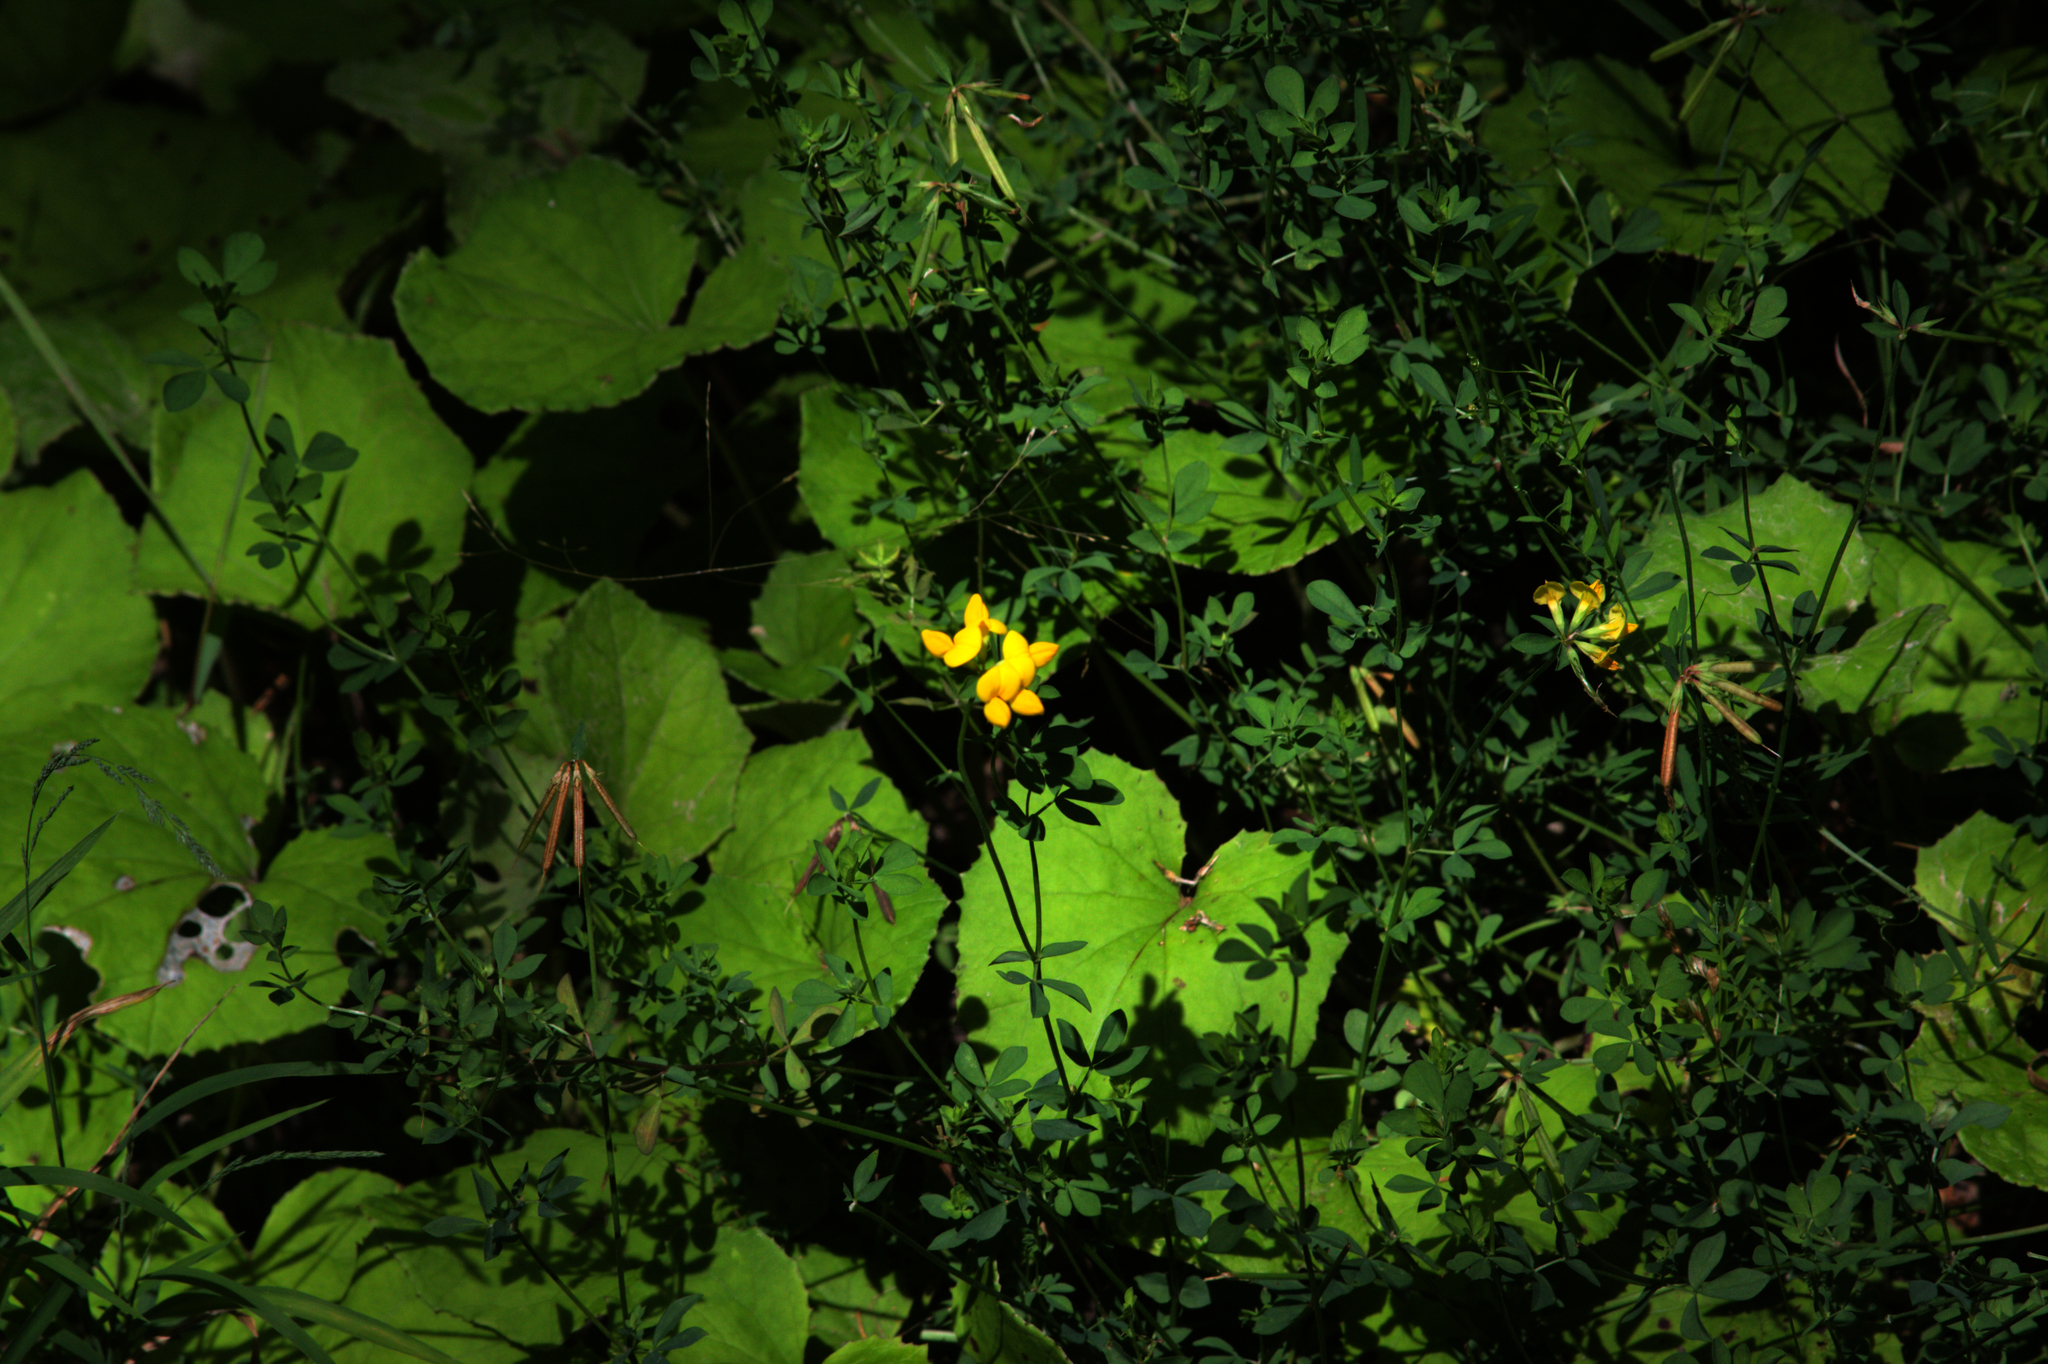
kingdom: Plantae
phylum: Tracheophyta
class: Magnoliopsida
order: Fabales
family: Fabaceae
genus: Lotus
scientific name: Lotus corniculatus
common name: Common bird's-foot-trefoil
